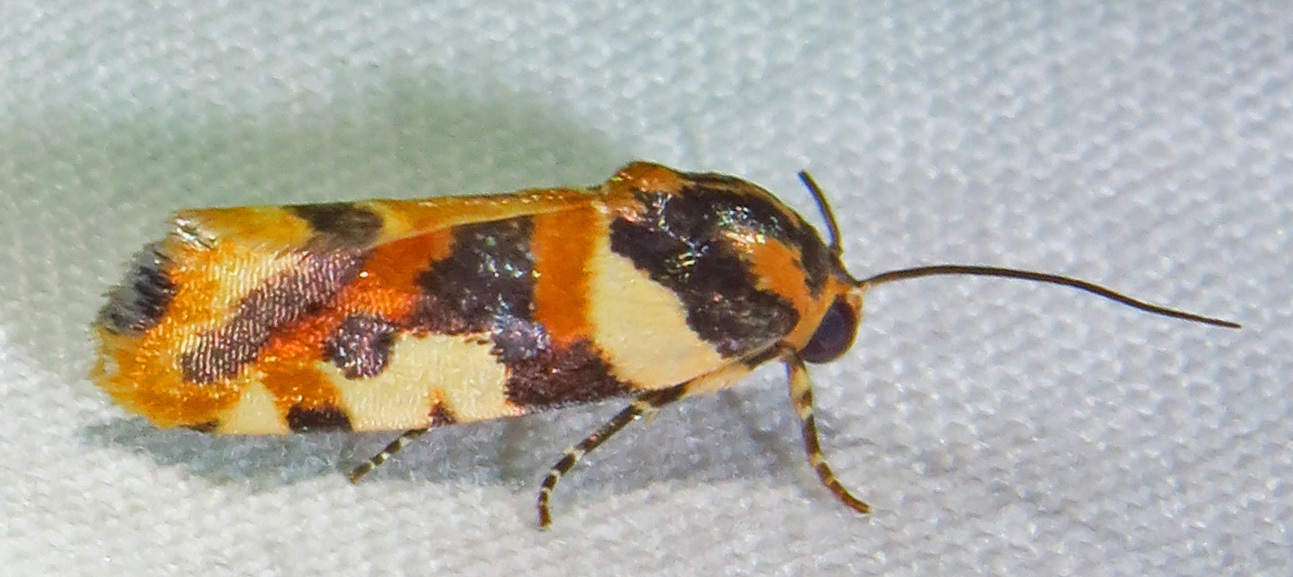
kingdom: Animalia
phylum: Arthropoda
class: Insecta
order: Lepidoptera
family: Noctuidae
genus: Acontia
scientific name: Acontia dama
